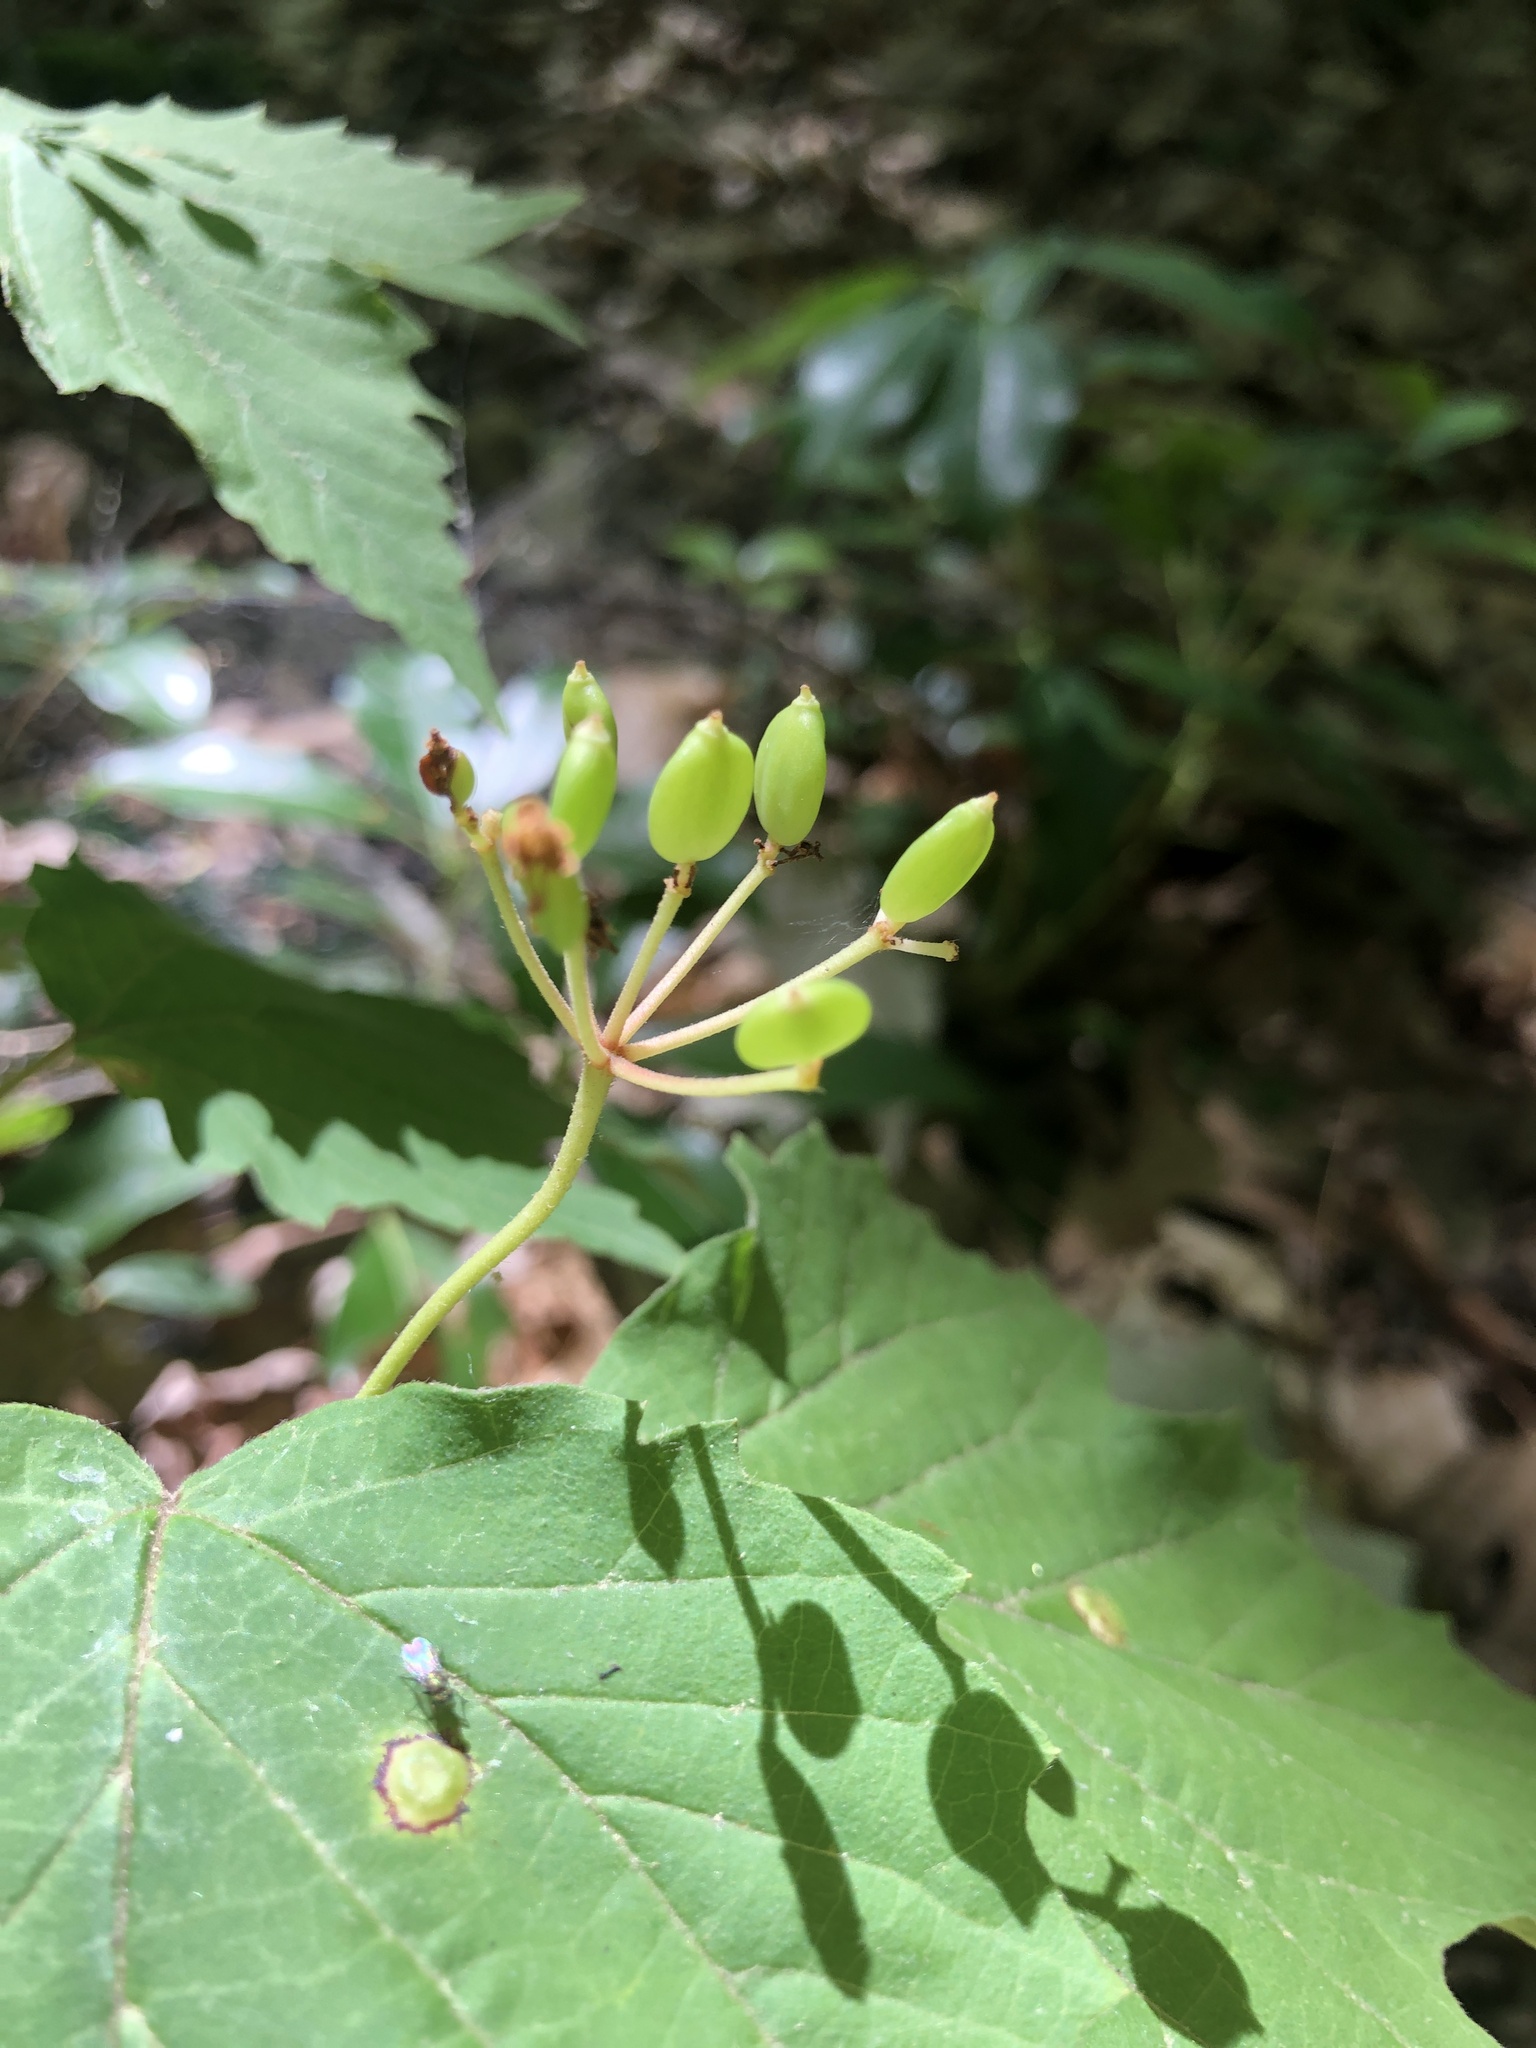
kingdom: Plantae
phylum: Tracheophyta
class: Magnoliopsida
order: Dipsacales
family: Viburnaceae
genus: Viburnum
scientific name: Viburnum acerifolium
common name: Dockmackie
